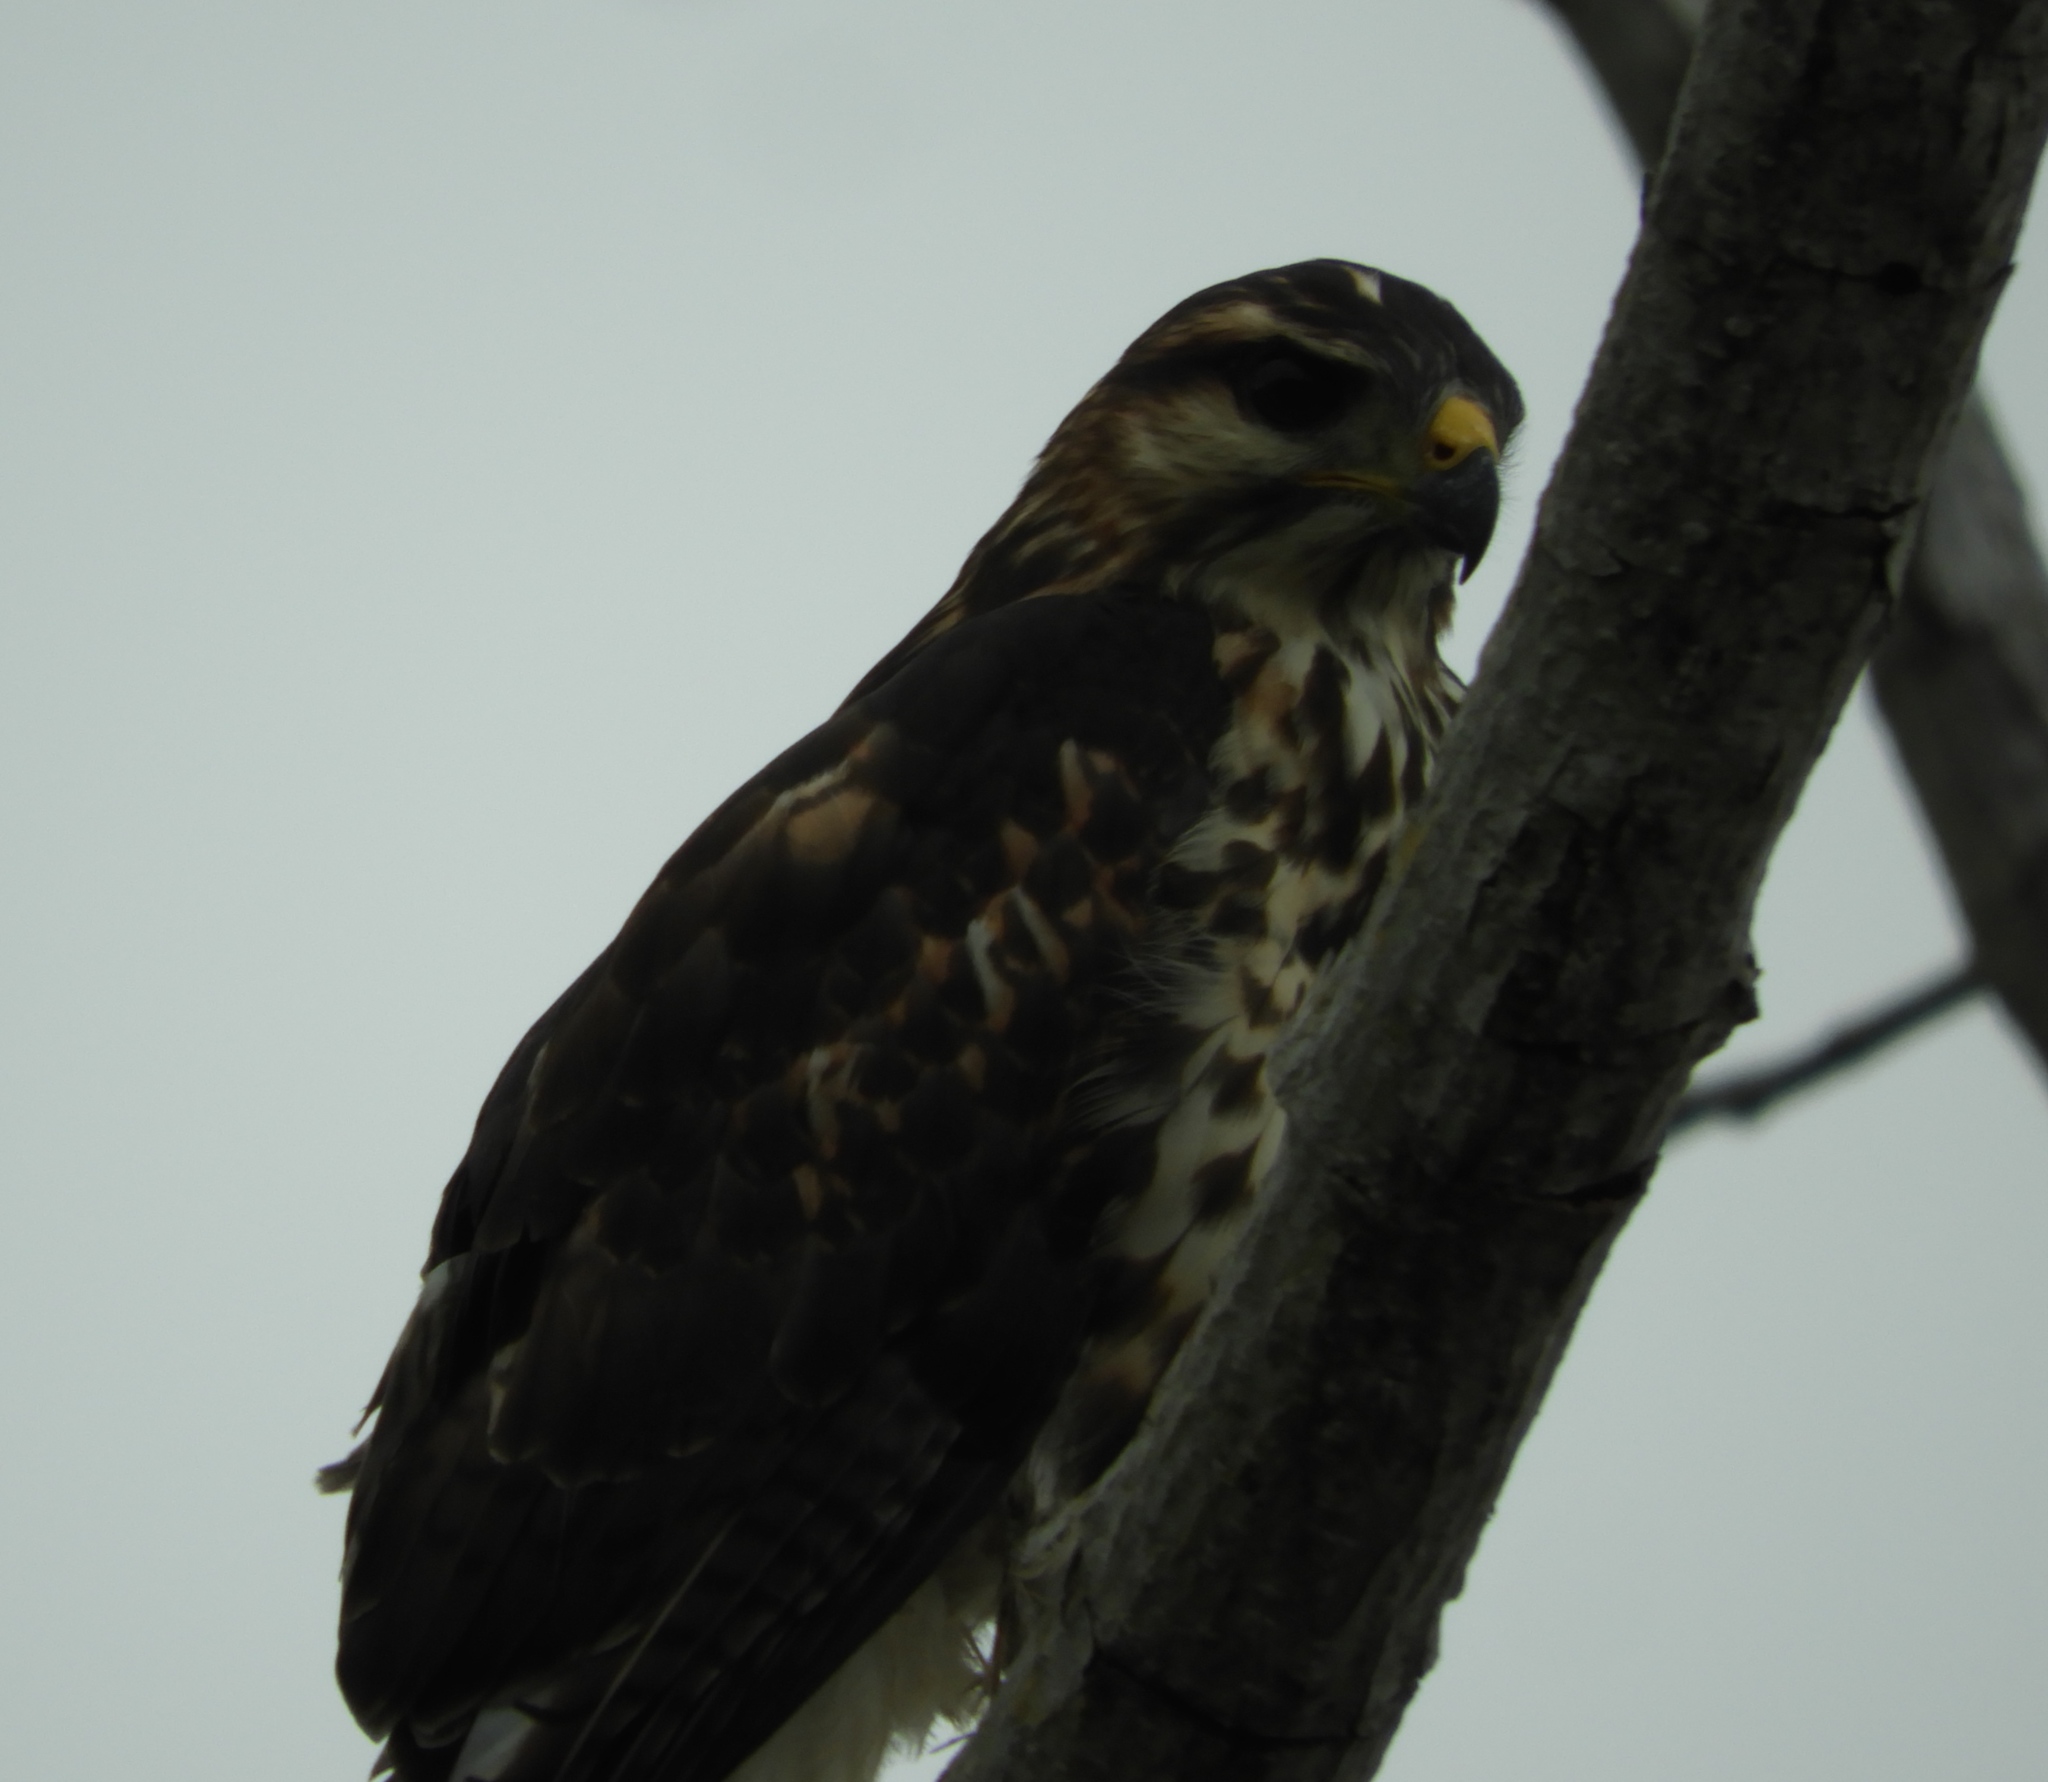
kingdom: Animalia
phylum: Chordata
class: Aves
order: Accipitriformes
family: Accipitridae
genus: Buteo
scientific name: Buteo nitidus
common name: Grey-lined hawk
